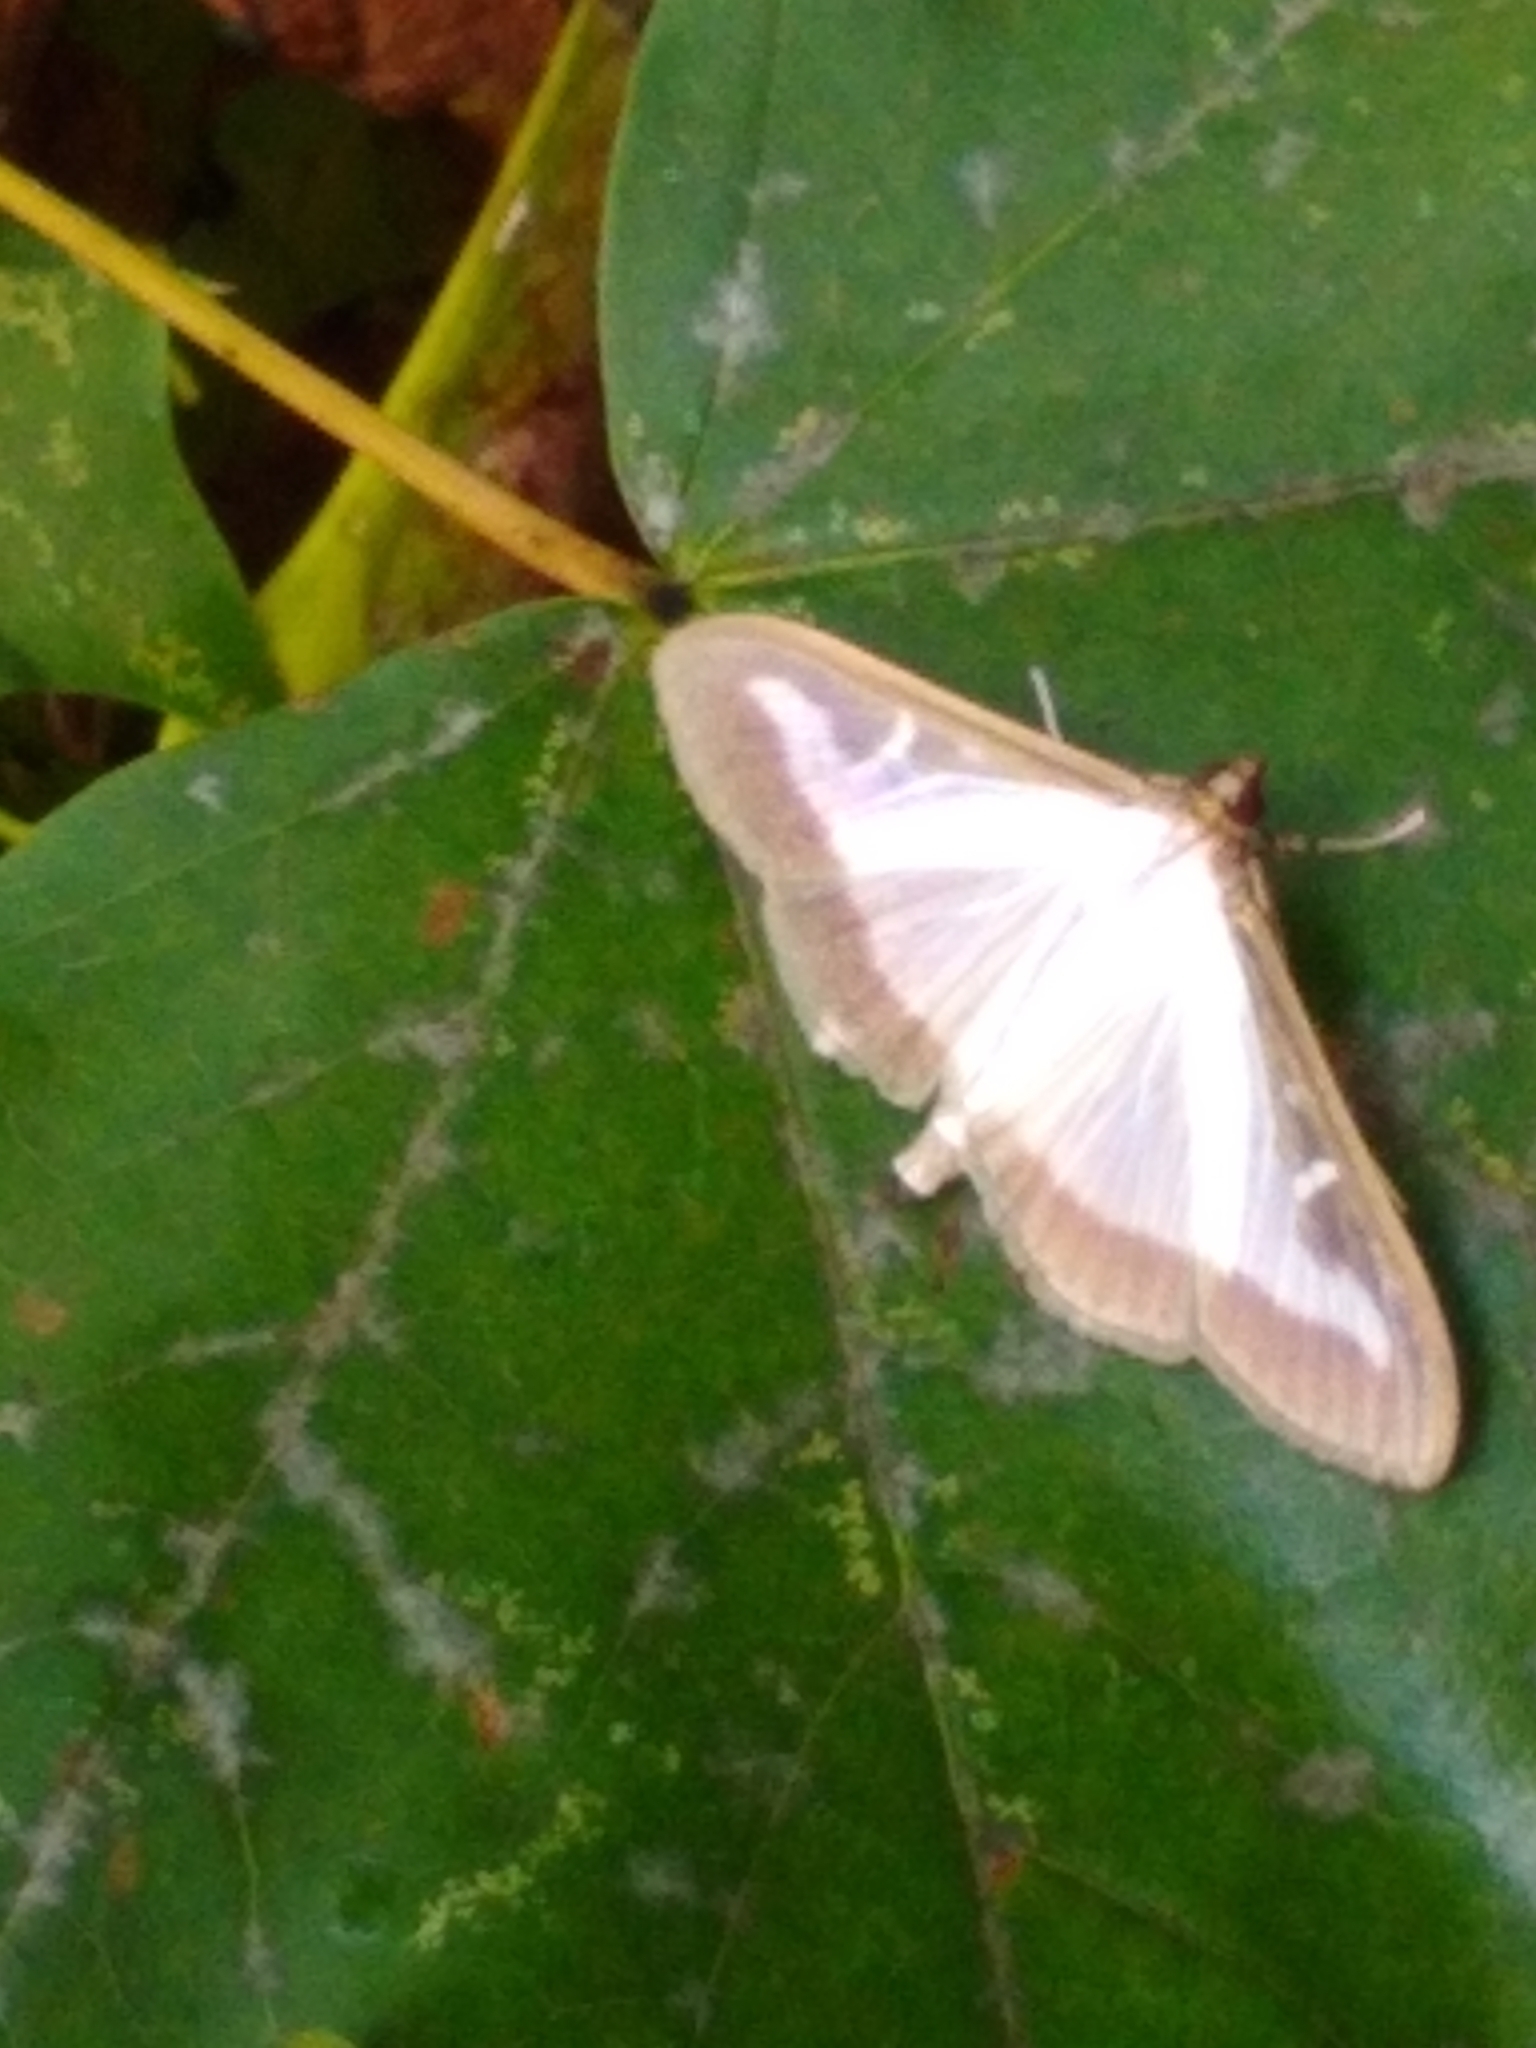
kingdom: Animalia
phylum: Arthropoda
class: Insecta
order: Lepidoptera
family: Crambidae
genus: Cydalima
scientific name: Cydalima perspectalis
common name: Box tree moth
